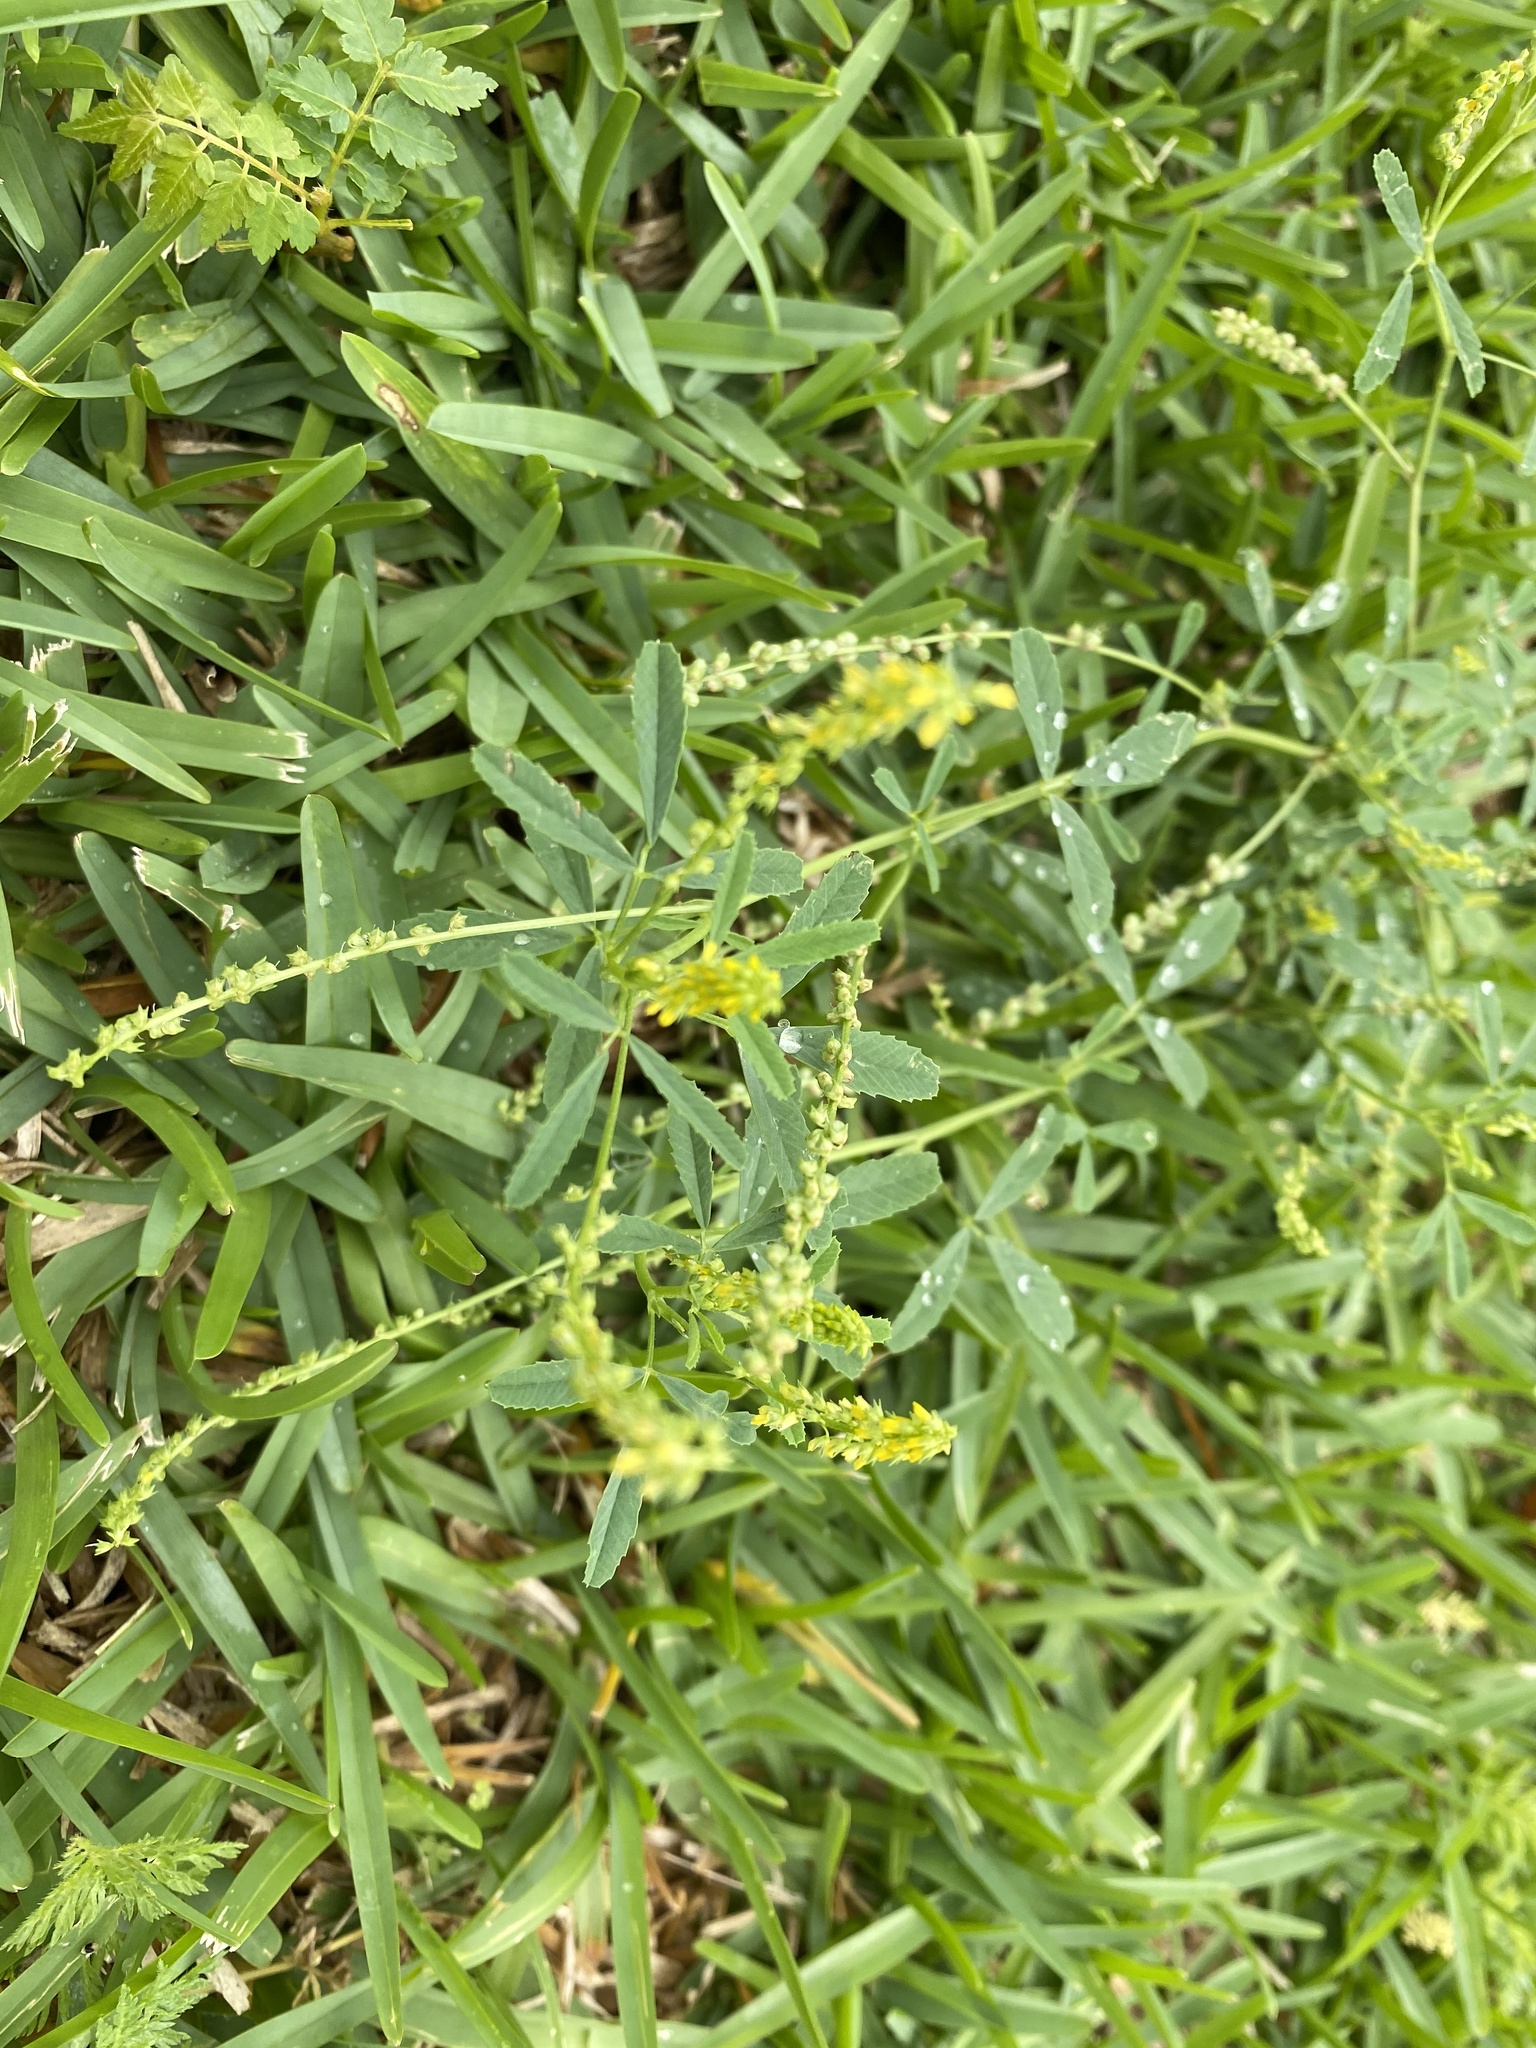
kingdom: Plantae
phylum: Tracheophyta
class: Magnoliopsida
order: Fabales
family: Fabaceae
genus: Melilotus
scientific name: Melilotus indicus
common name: Small melilot
